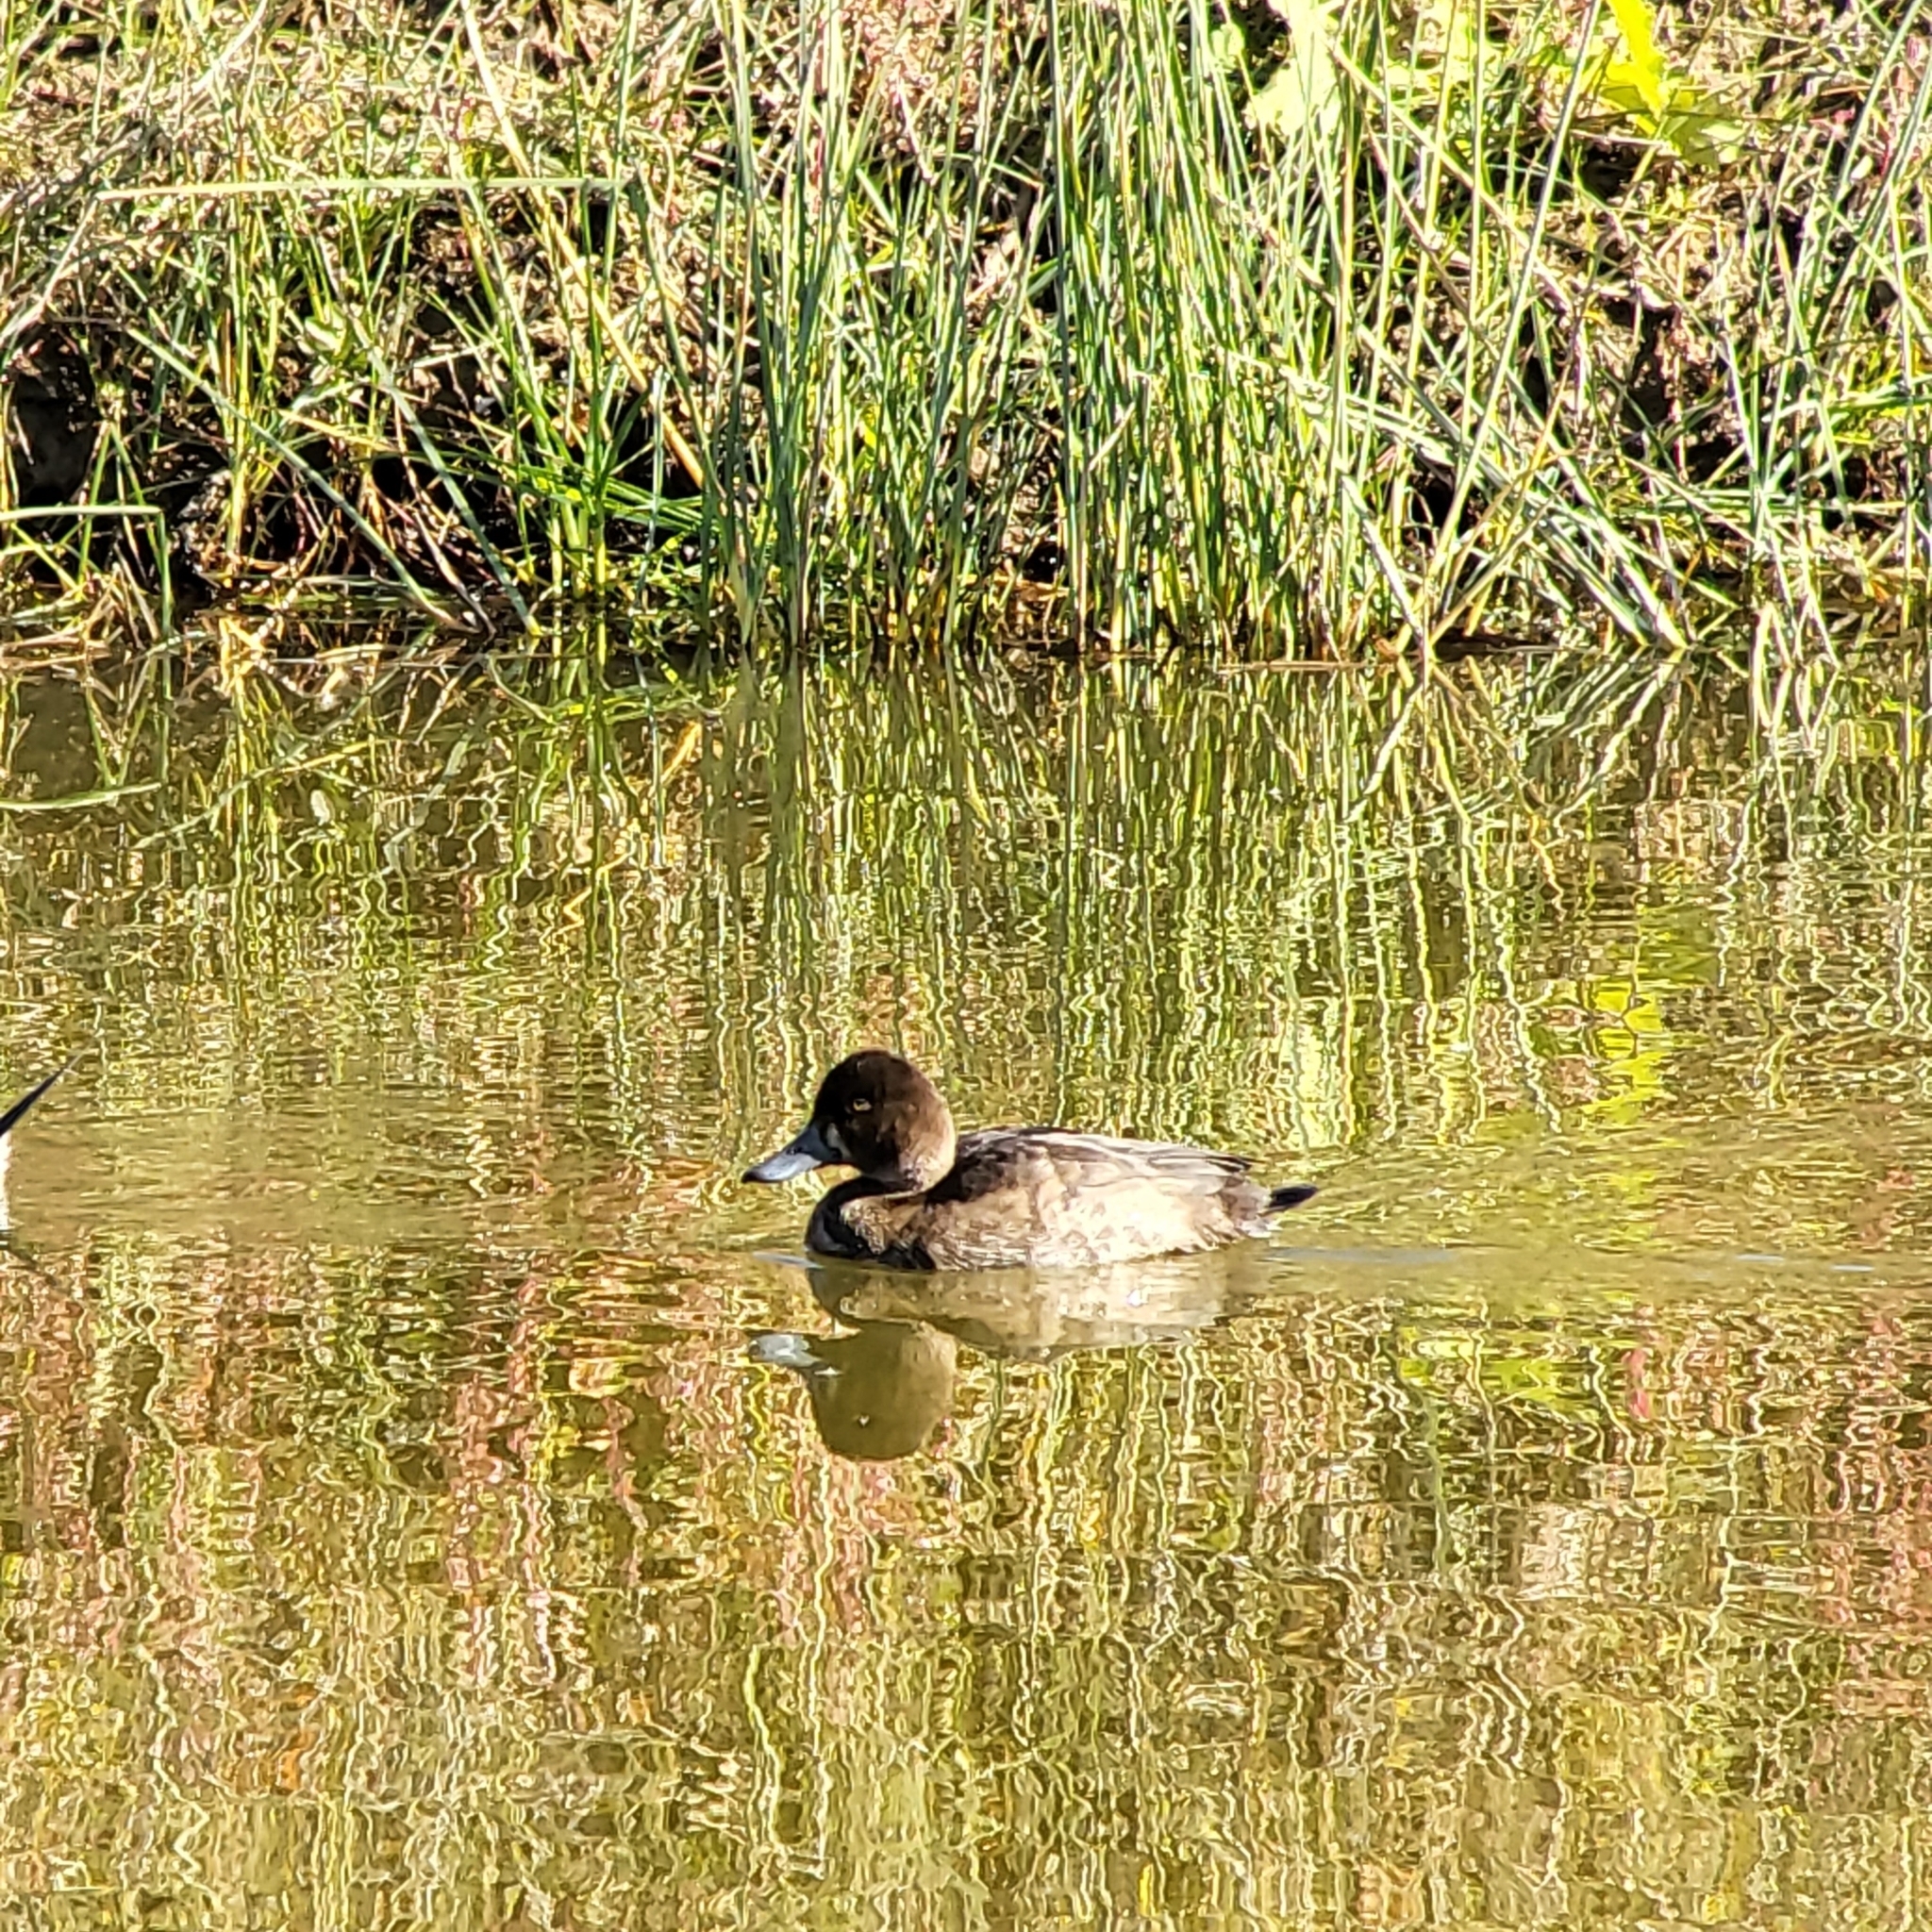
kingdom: Animalia
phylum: Chordata
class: Aves
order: Anseriformes
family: Anatidae
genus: Aythya
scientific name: Aythya affinis
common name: Lesser scaup
